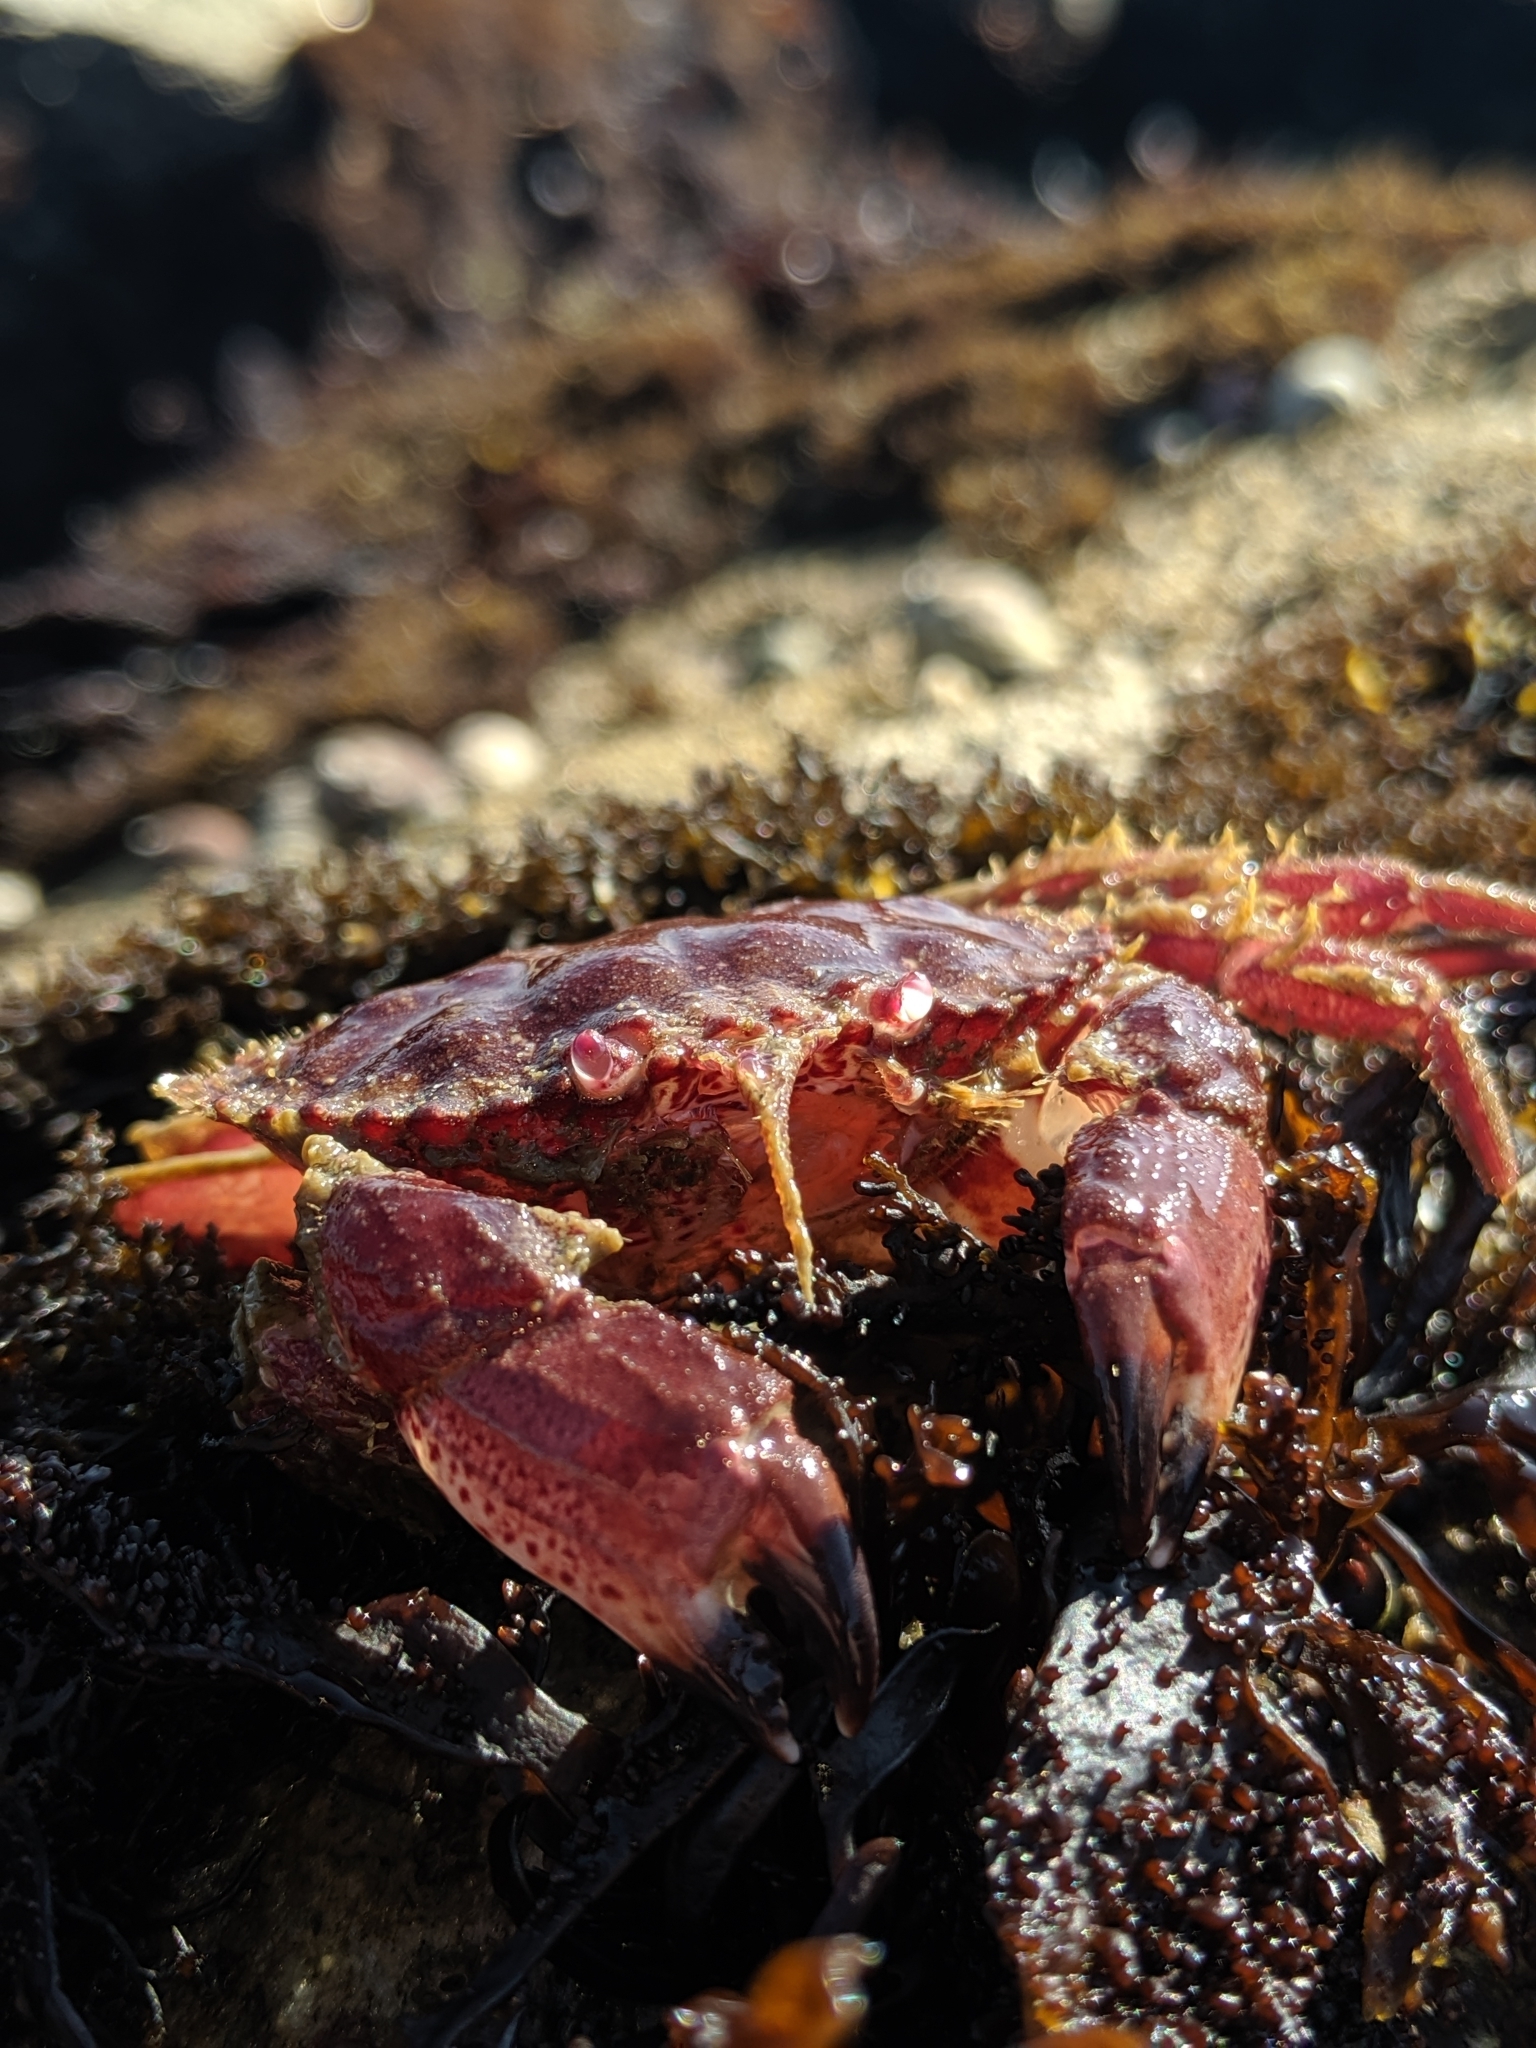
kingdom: Animalia
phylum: Arthropoda
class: Malacostraca
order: Decapoda
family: Cancridae
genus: Romaleon
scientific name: Romaleon antennarium
